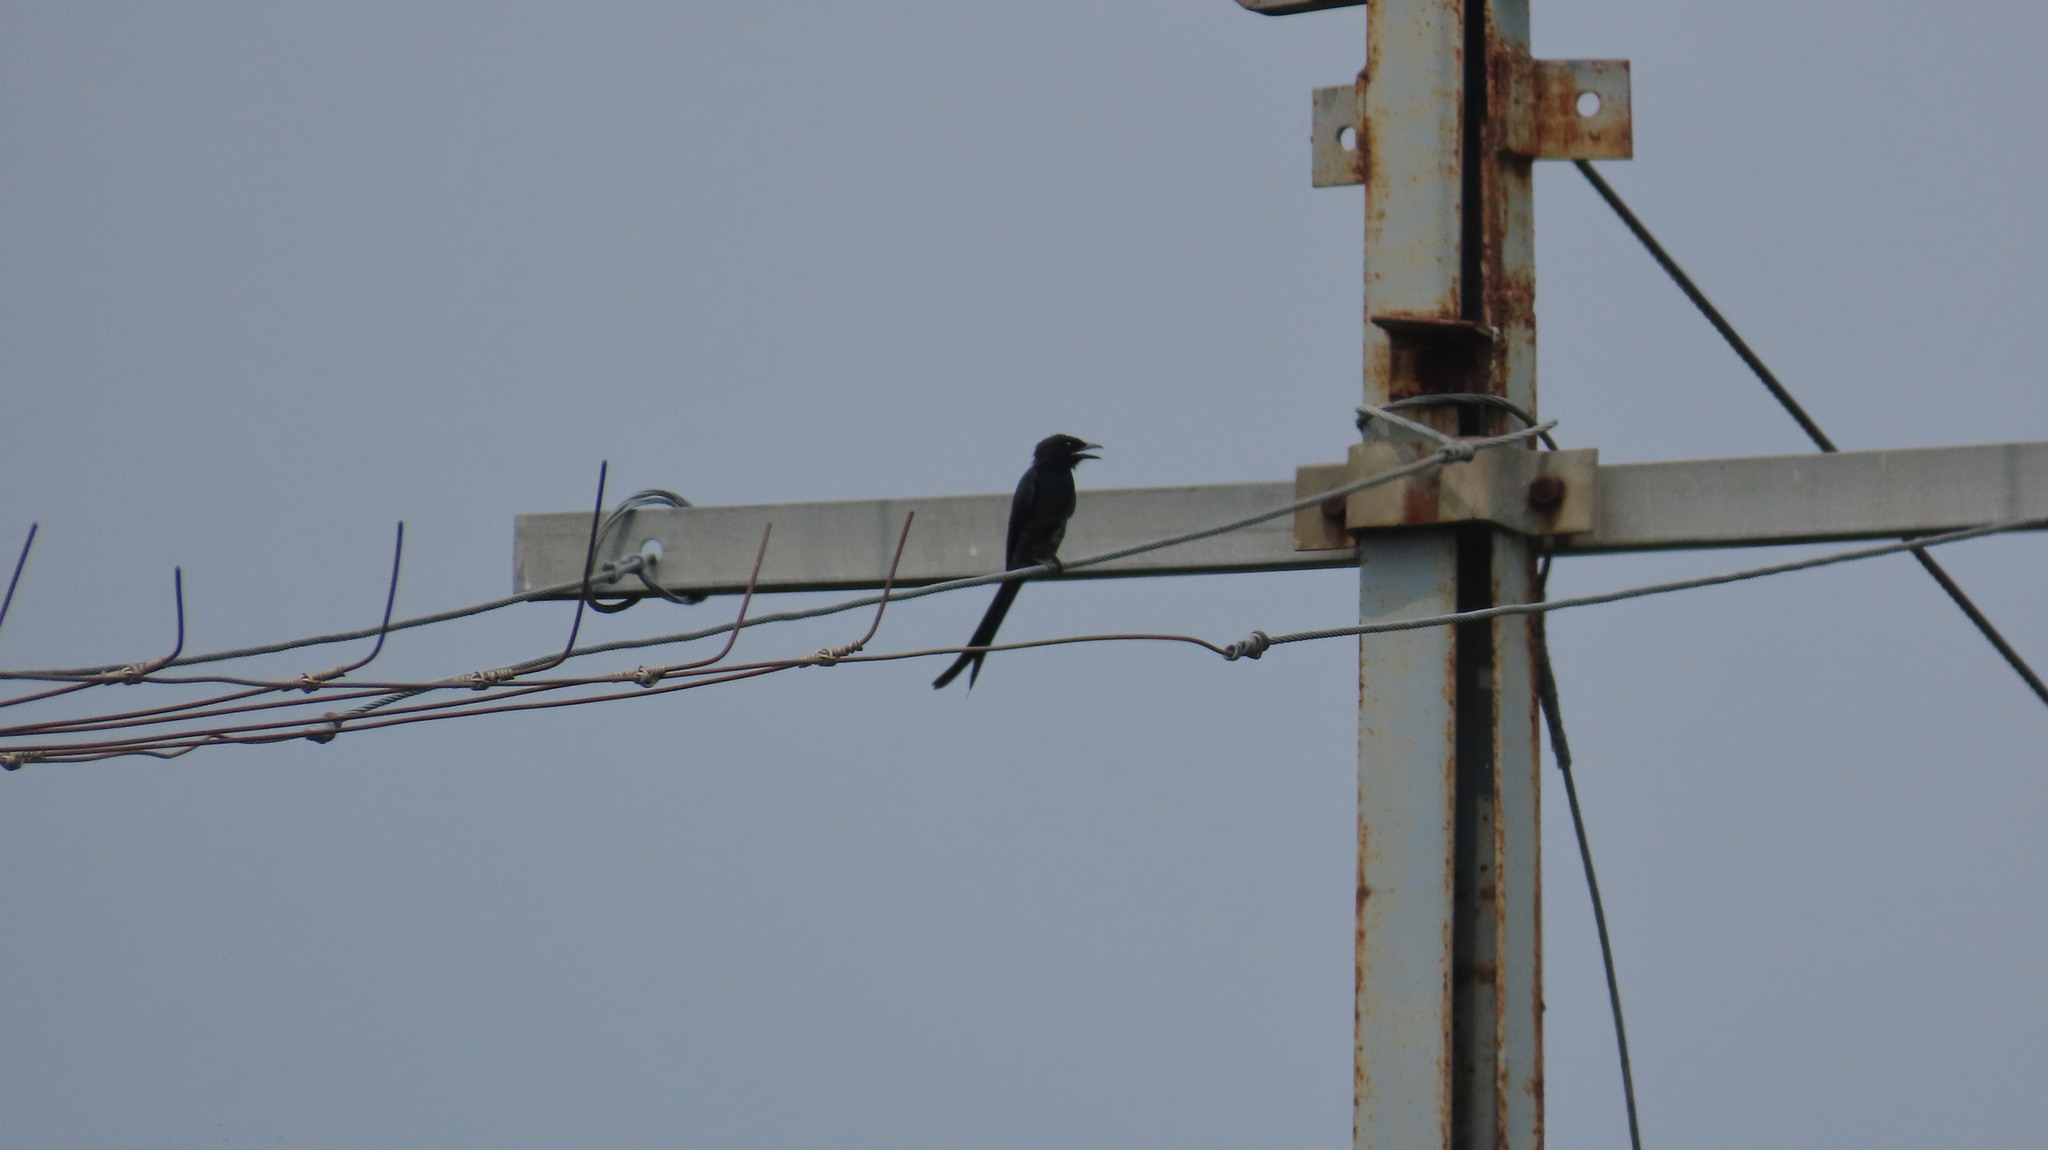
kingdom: Animalia
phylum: Chordata
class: Aves
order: Passeriformes
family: Dicruridae
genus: Dicrurus
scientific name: Dicrurus macrocercus
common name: Black drongo
